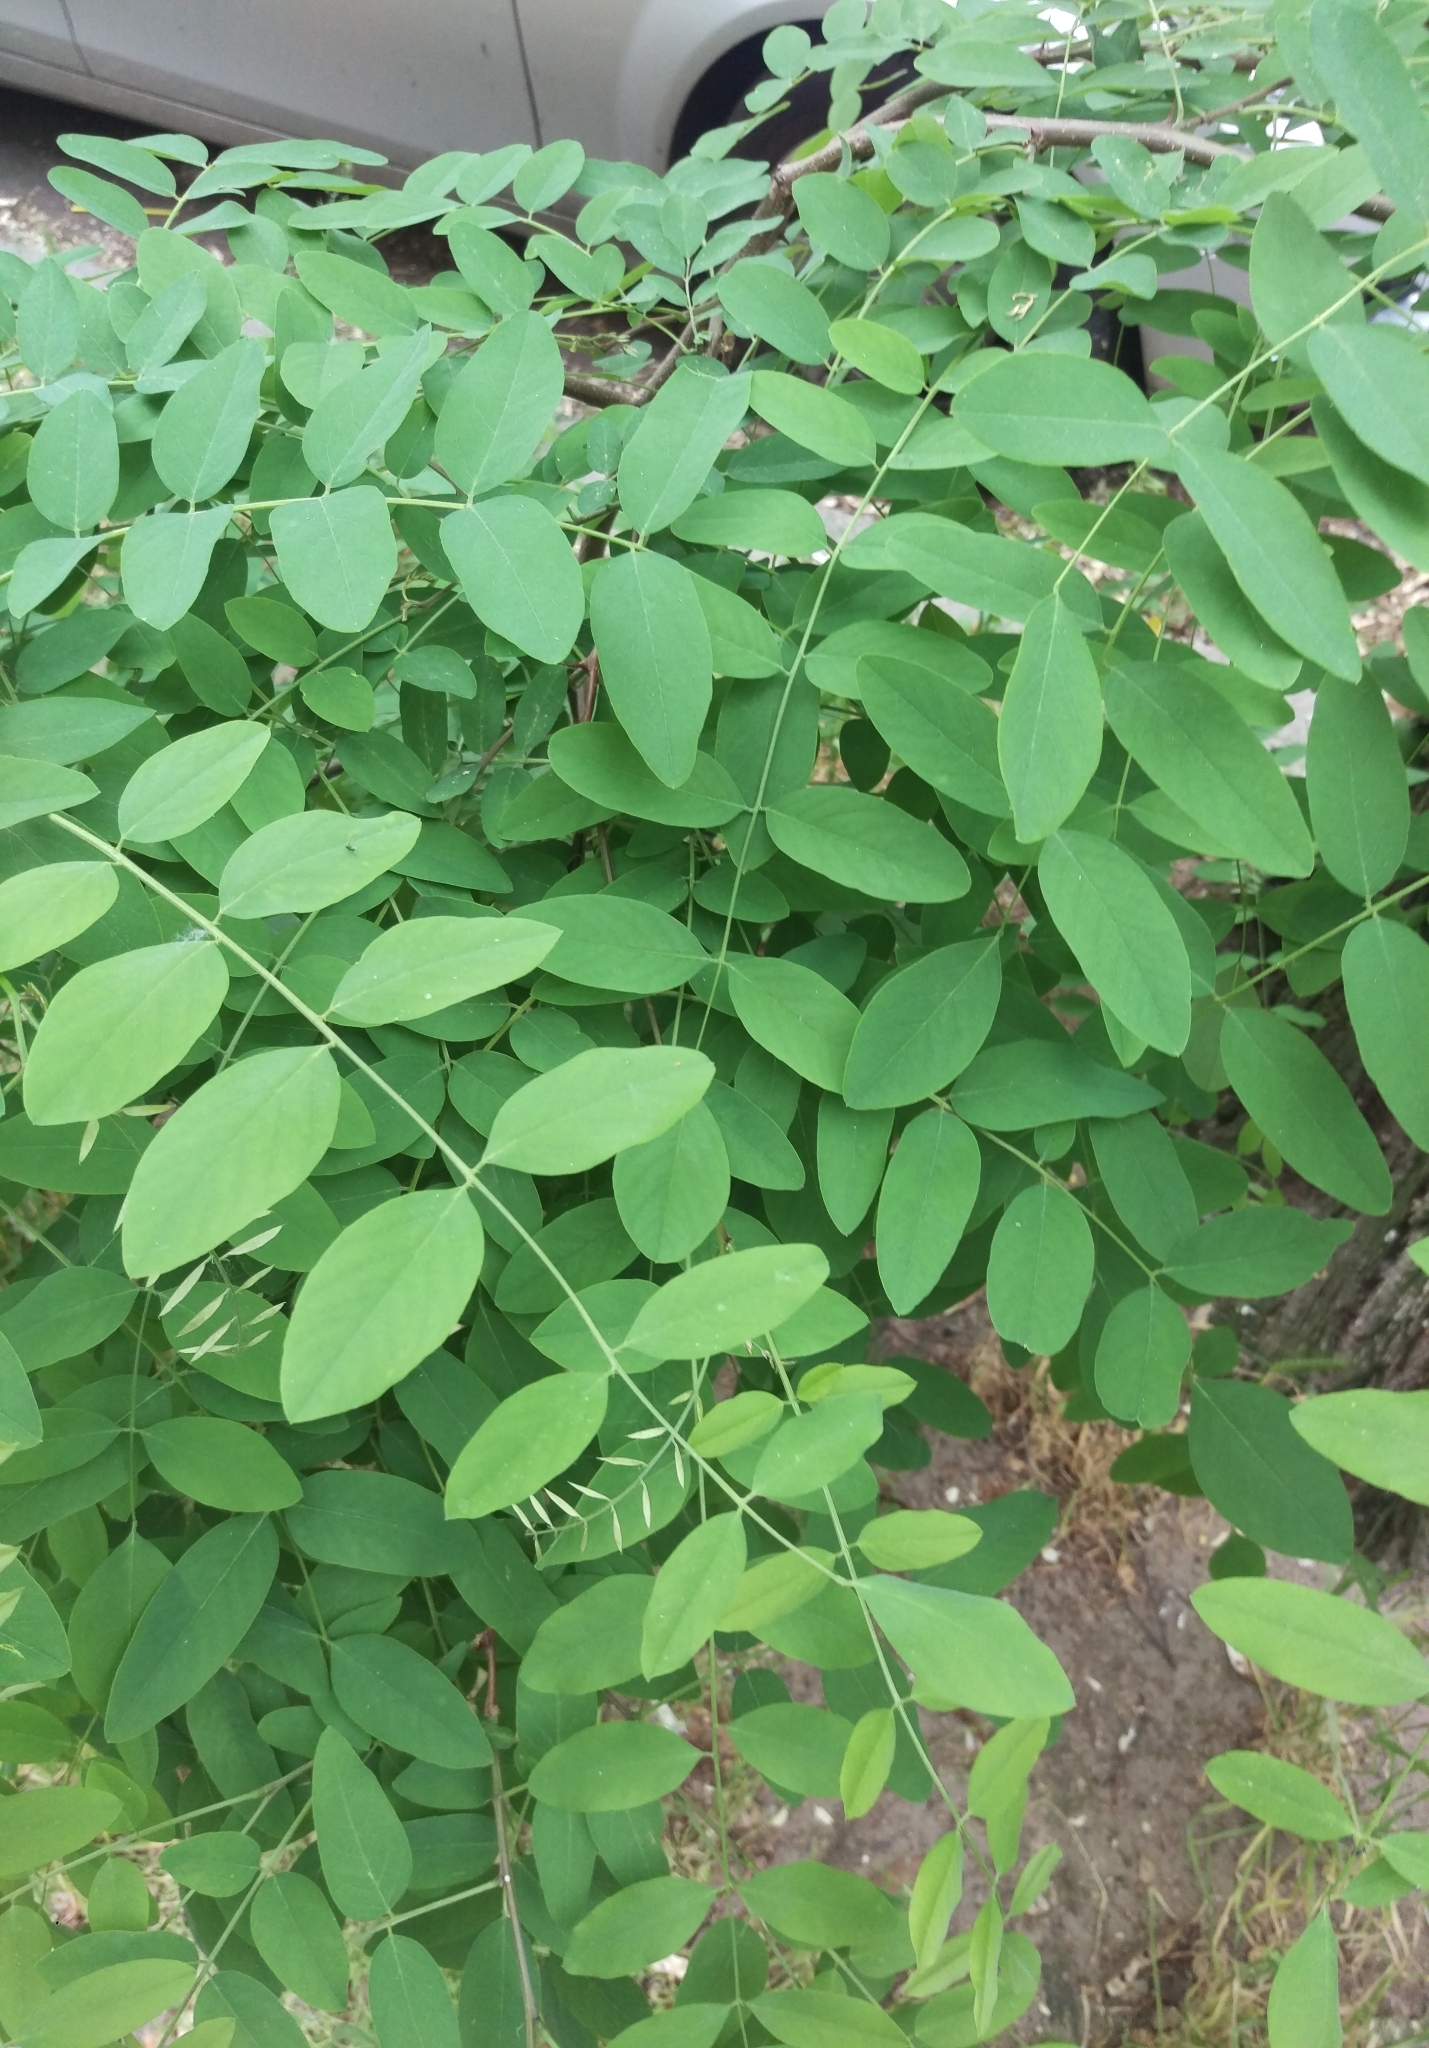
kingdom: Plantae
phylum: Tracheophyta
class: Magnoliopsida
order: Fabales
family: Fabaceae
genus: Robinia
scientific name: Robinia pseudoacacia
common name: Black locust
